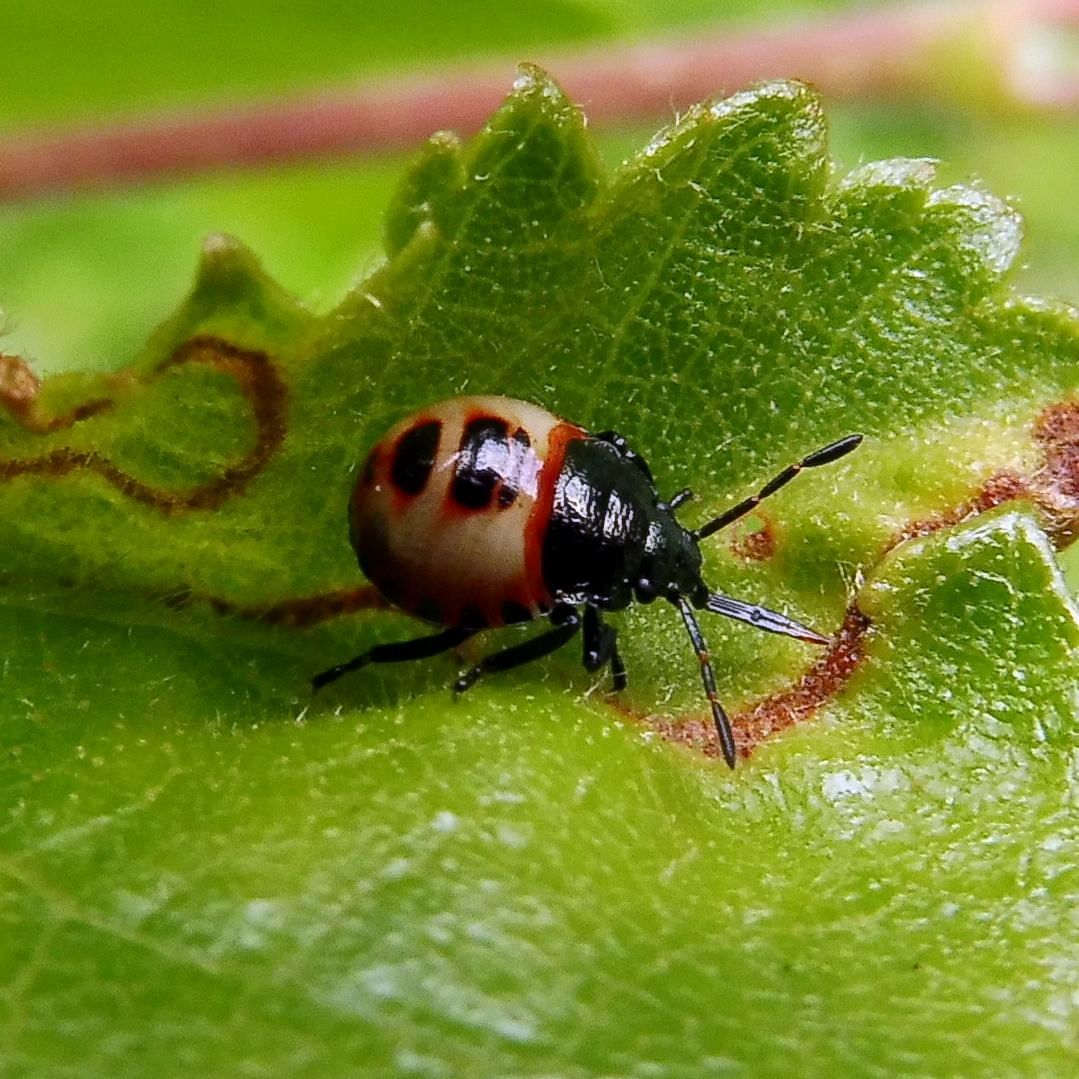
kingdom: Animalia
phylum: Arthropoda
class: Insecta
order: Hemiptera
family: Pentatomidae
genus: Troilus
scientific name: Troilus luridus
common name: Bronze shieldbug
